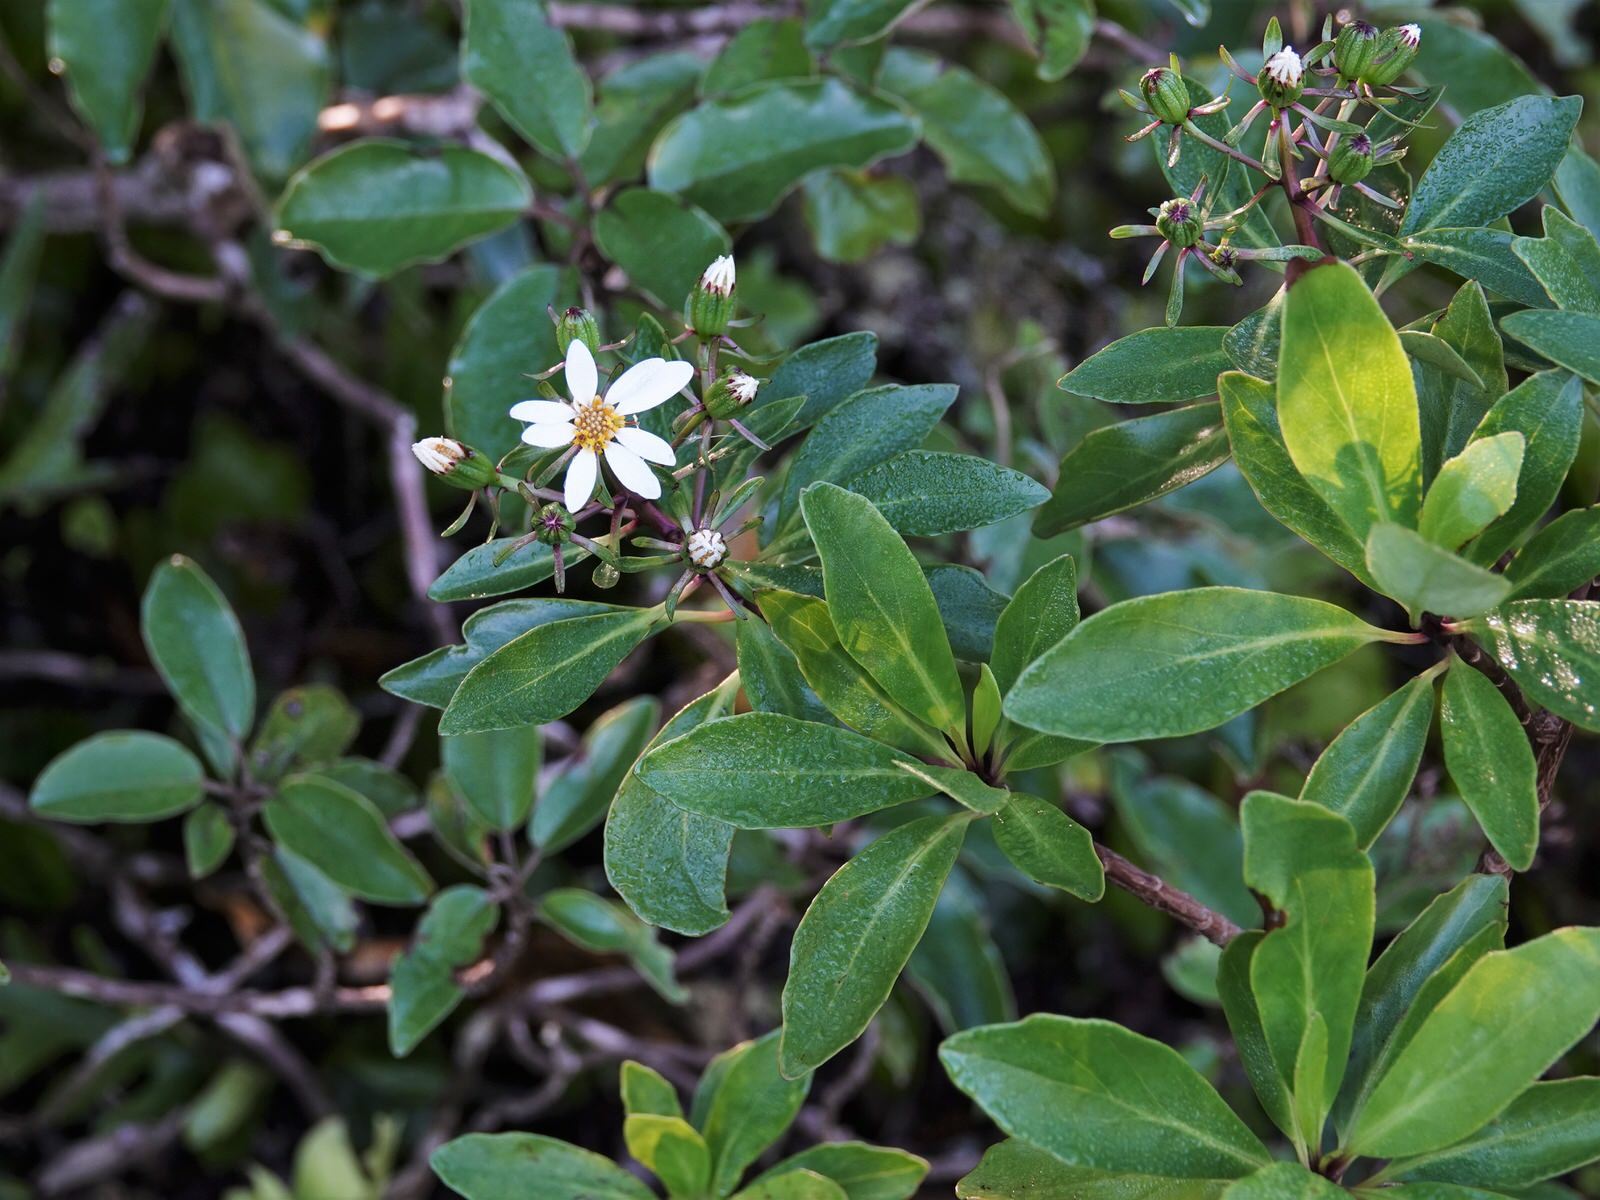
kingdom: Plantae
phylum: Tracheophyta
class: Magnoliopsida
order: Asterales
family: Asteraceae
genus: Brachyglottis
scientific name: Brachyglottis kirkii
